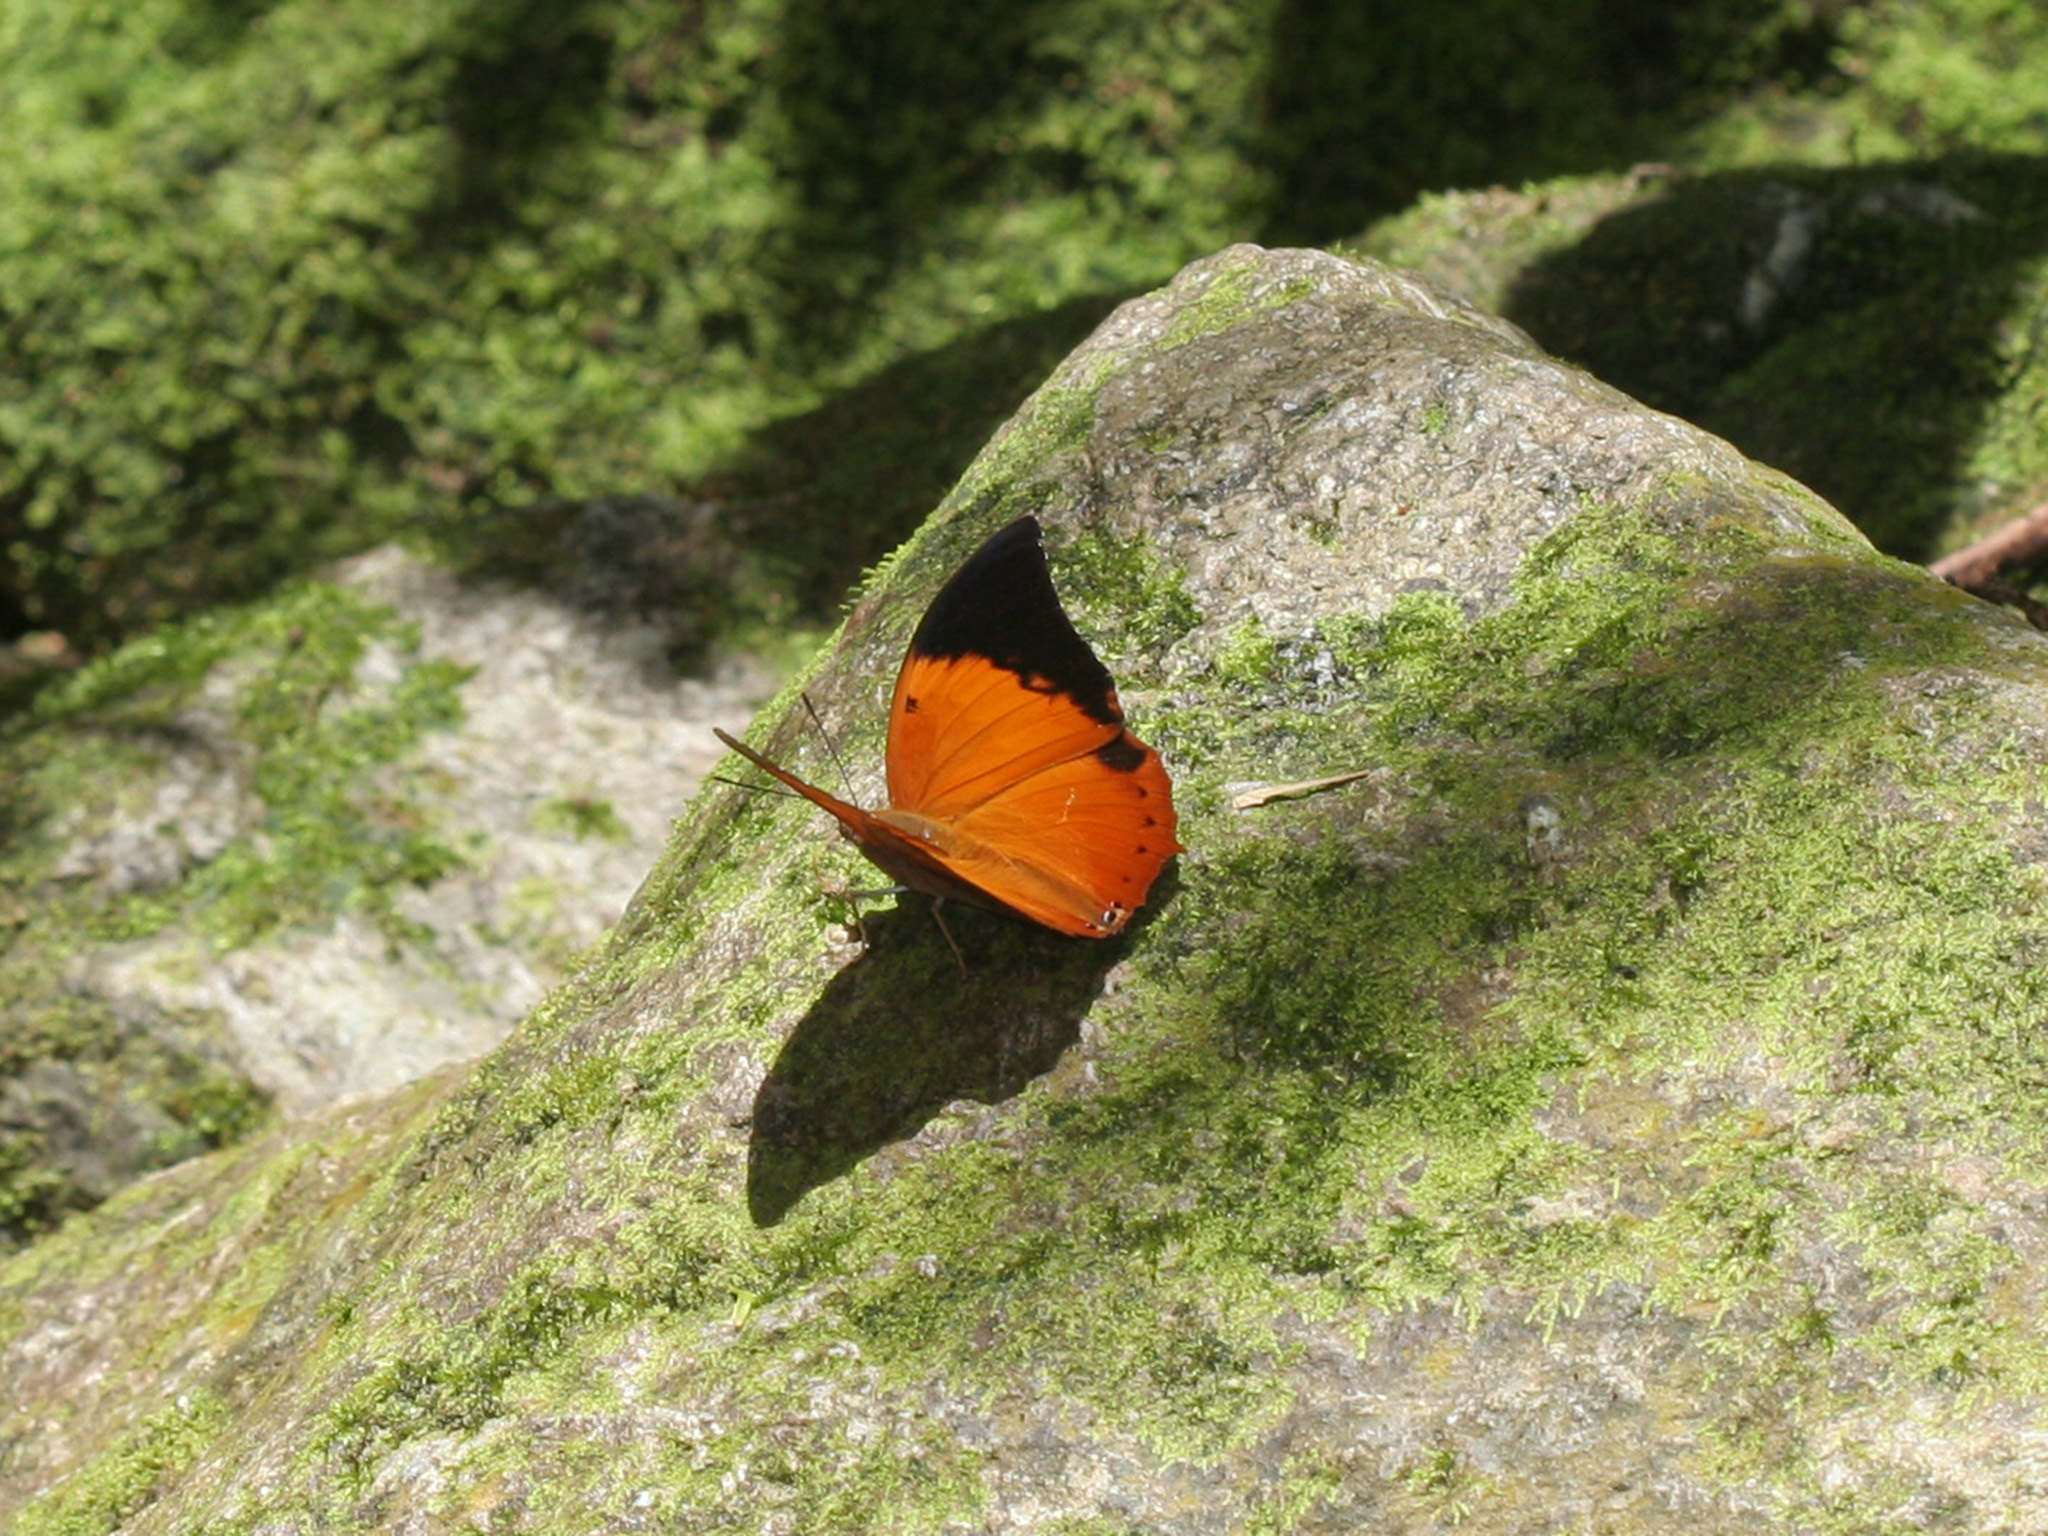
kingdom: Animalia
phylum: Arthropoda
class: Insecta
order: Lepidoptera
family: Nymphalidae
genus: Charaxes
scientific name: Charaxes bernardus
